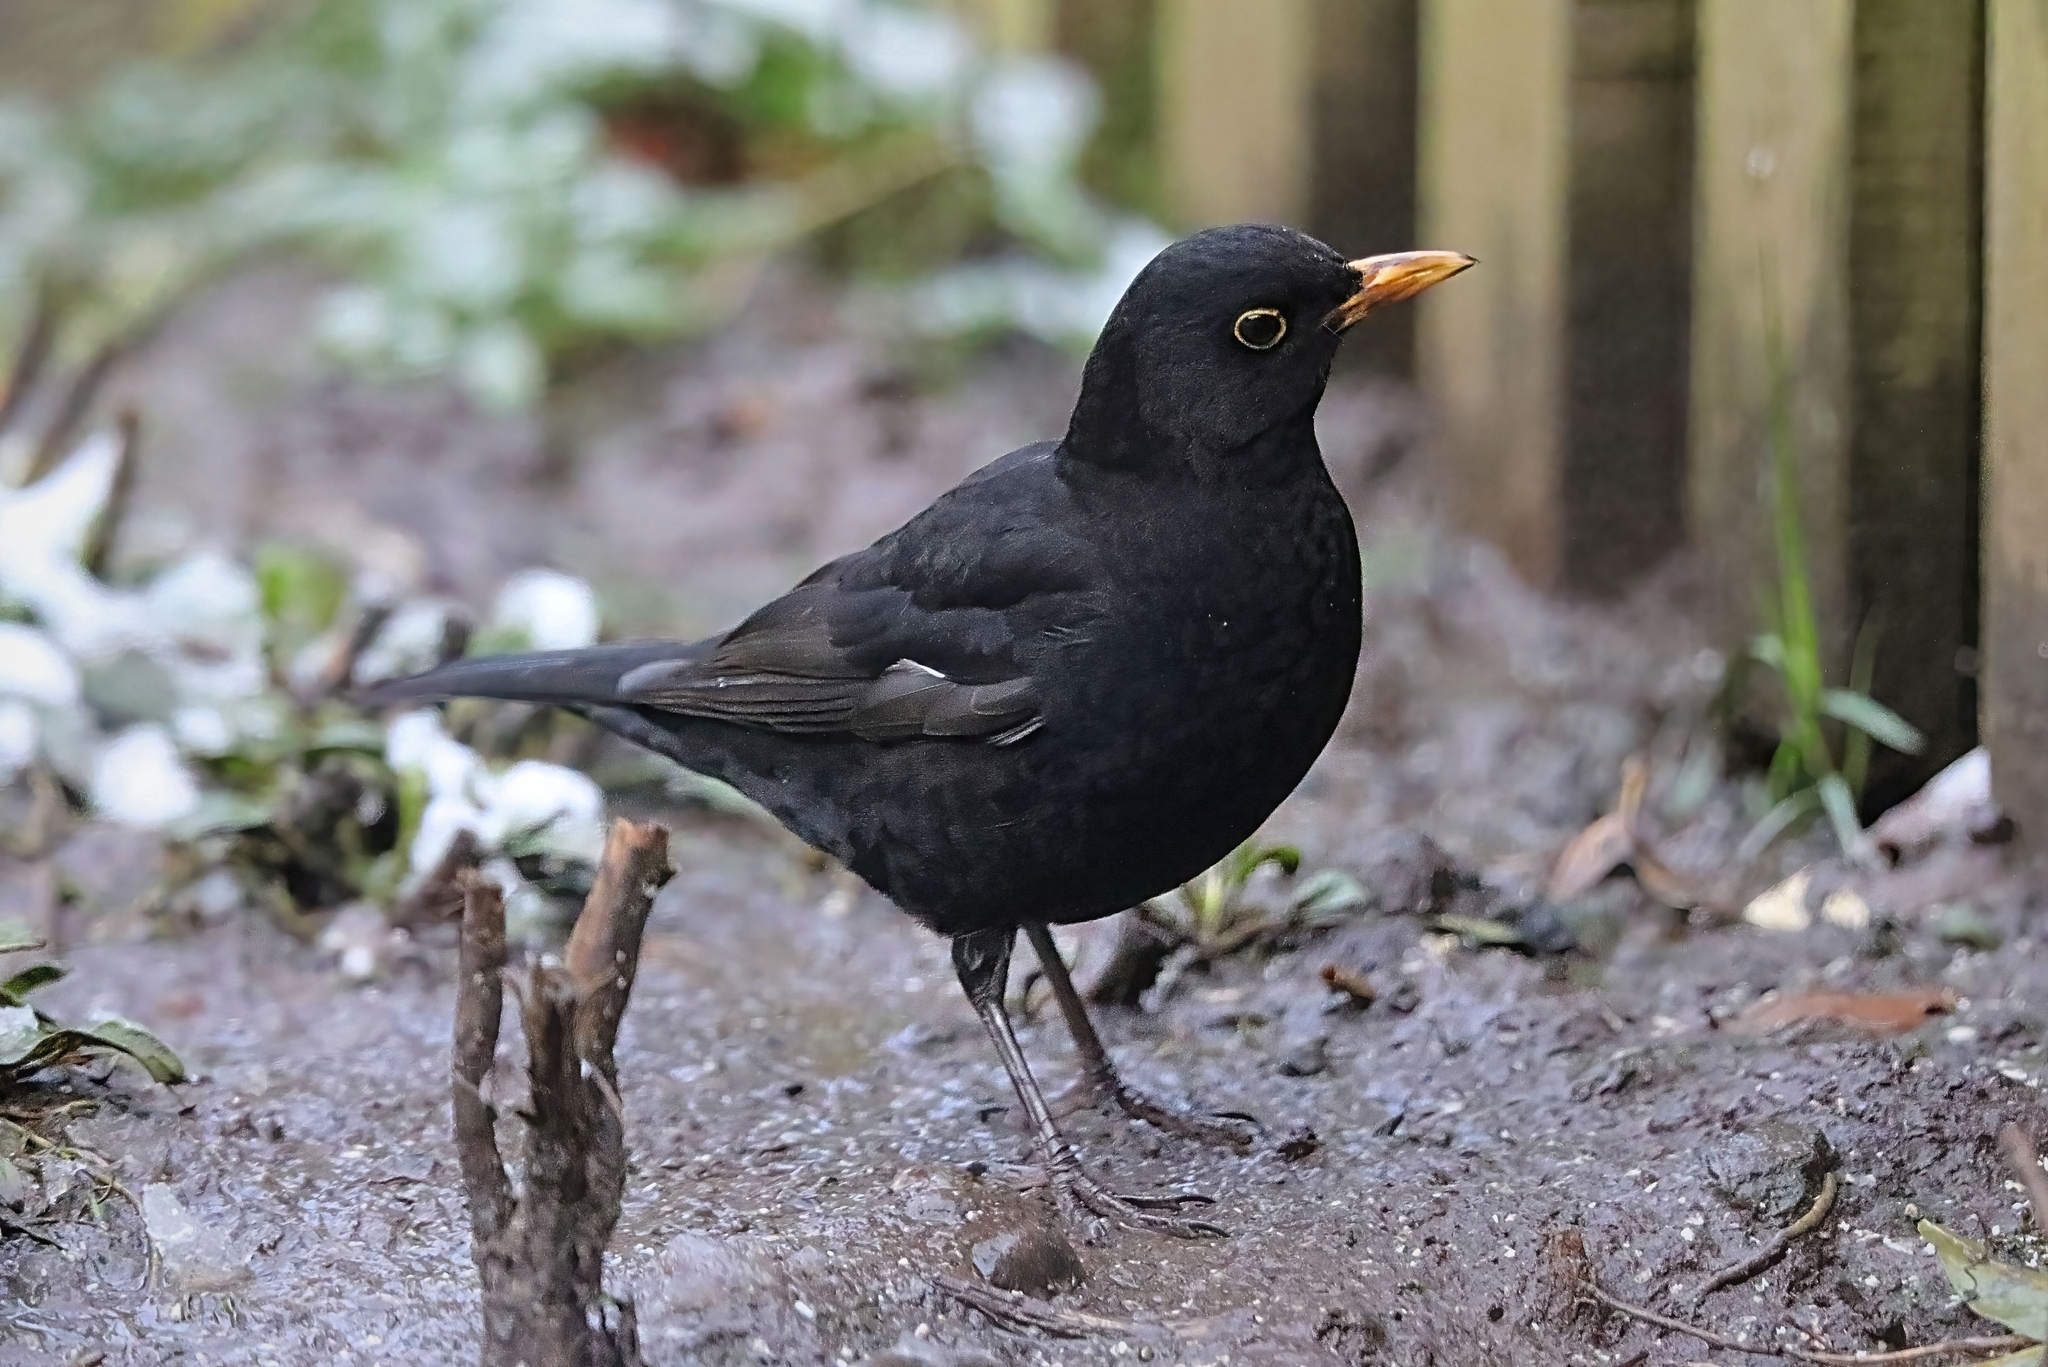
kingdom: Animalia
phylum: Chordata
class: Aves
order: Passeriformes
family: Turdidae
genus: Turdus
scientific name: Turdus merula
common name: Common blackbird
